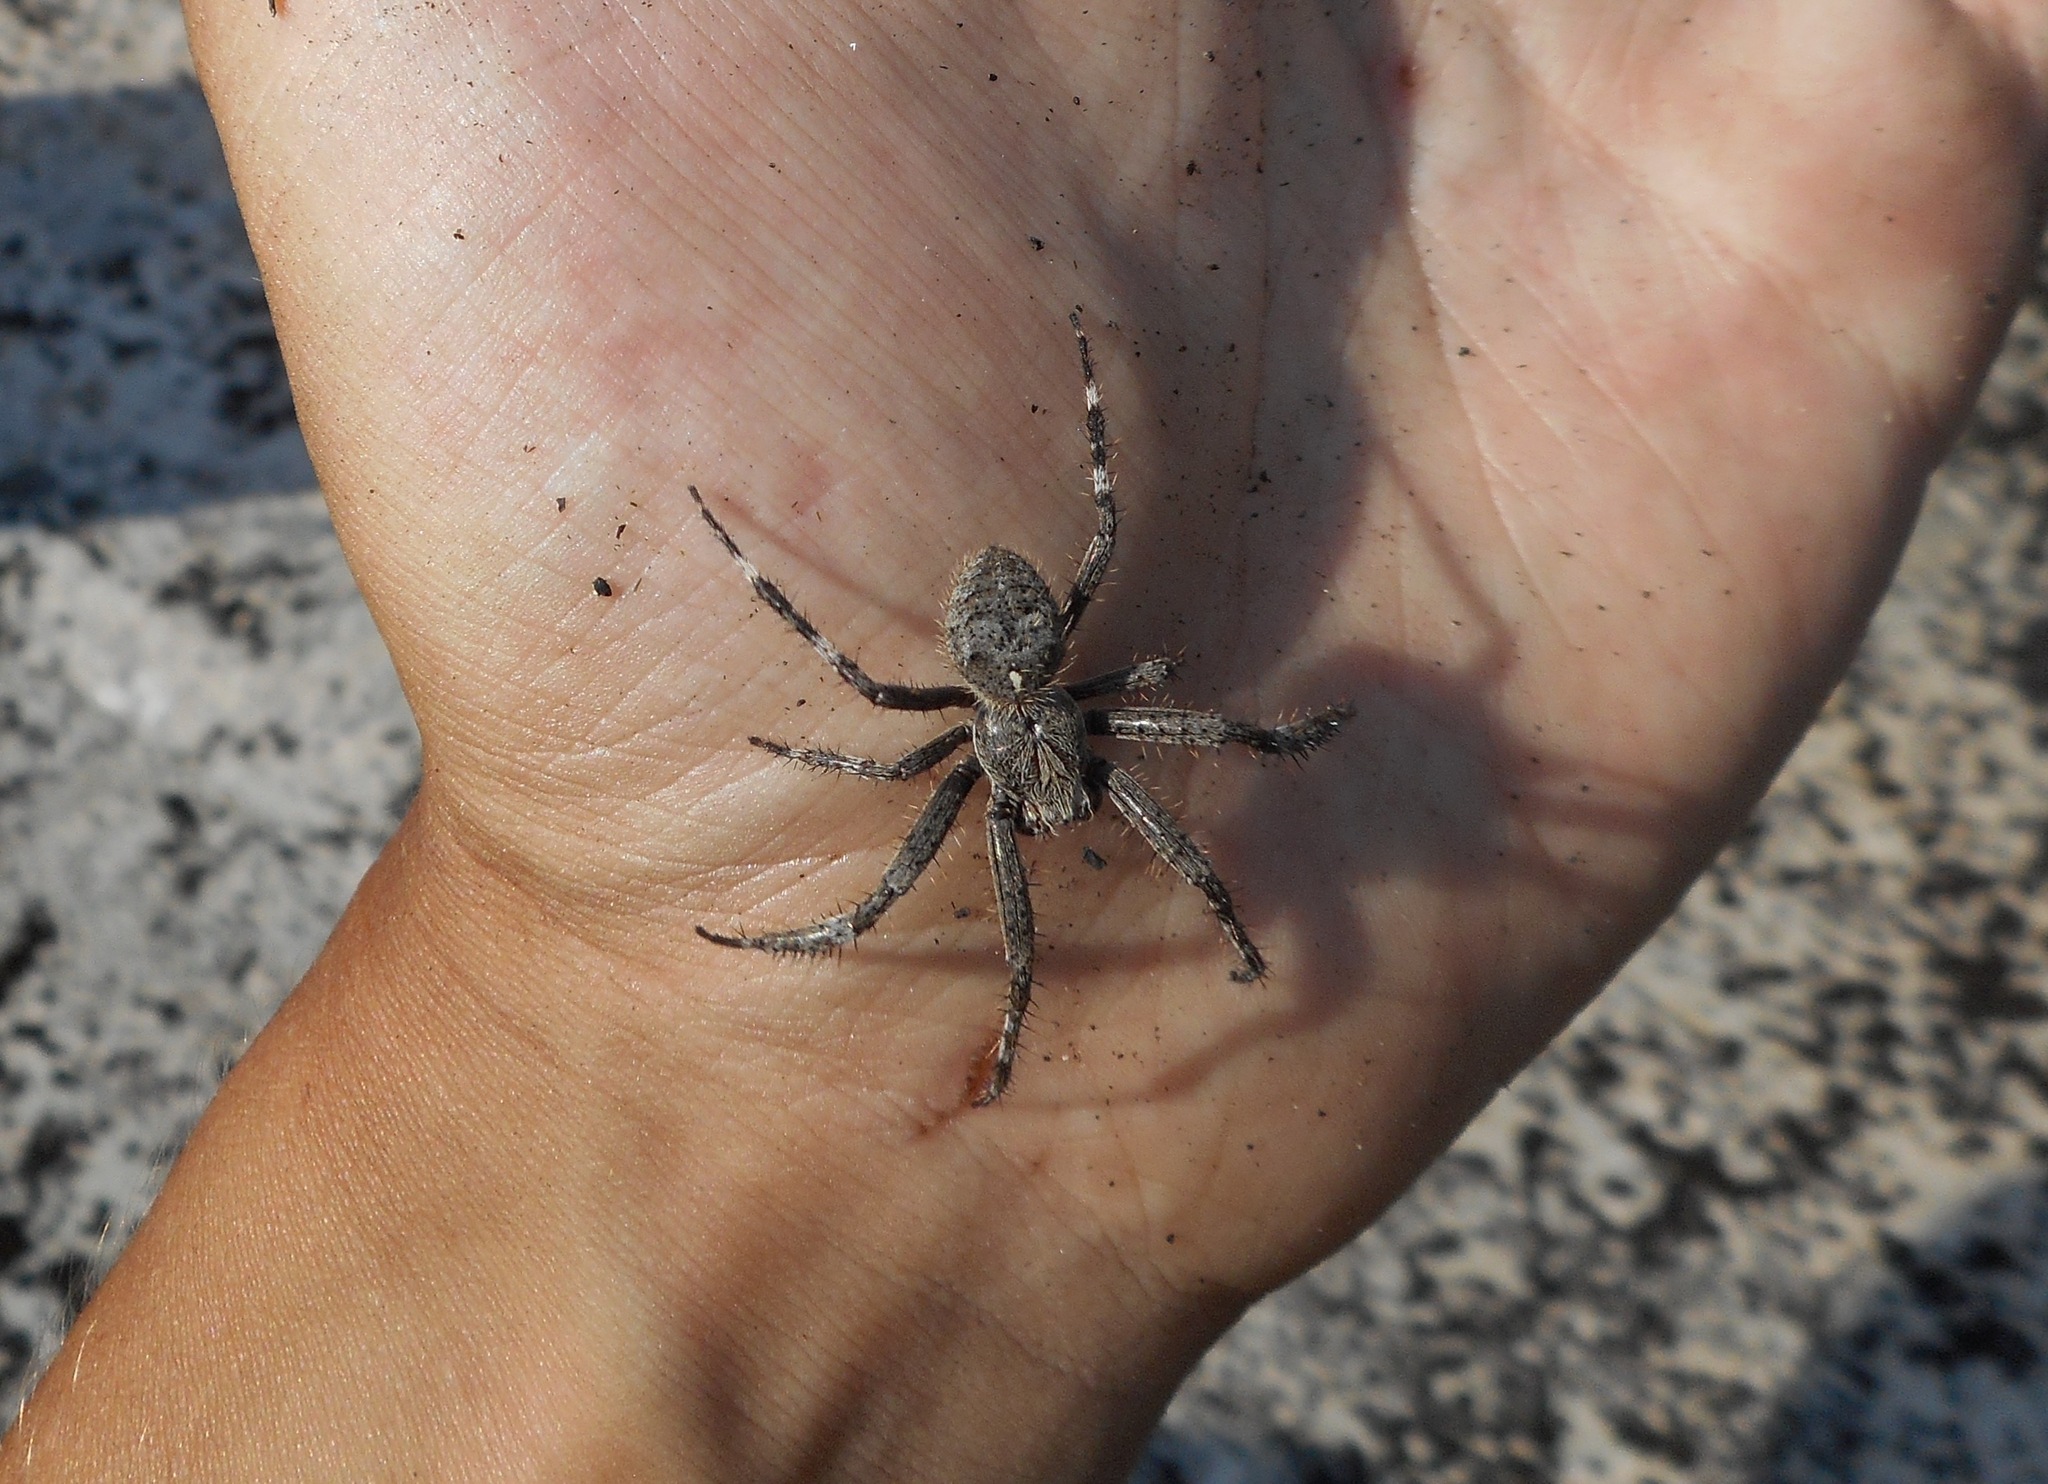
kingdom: Animalia
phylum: Arthropoda
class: Arachnida
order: Araneae
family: Araneidae
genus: Araneus
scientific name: Araneus saevus
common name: Fierce orbweaver
